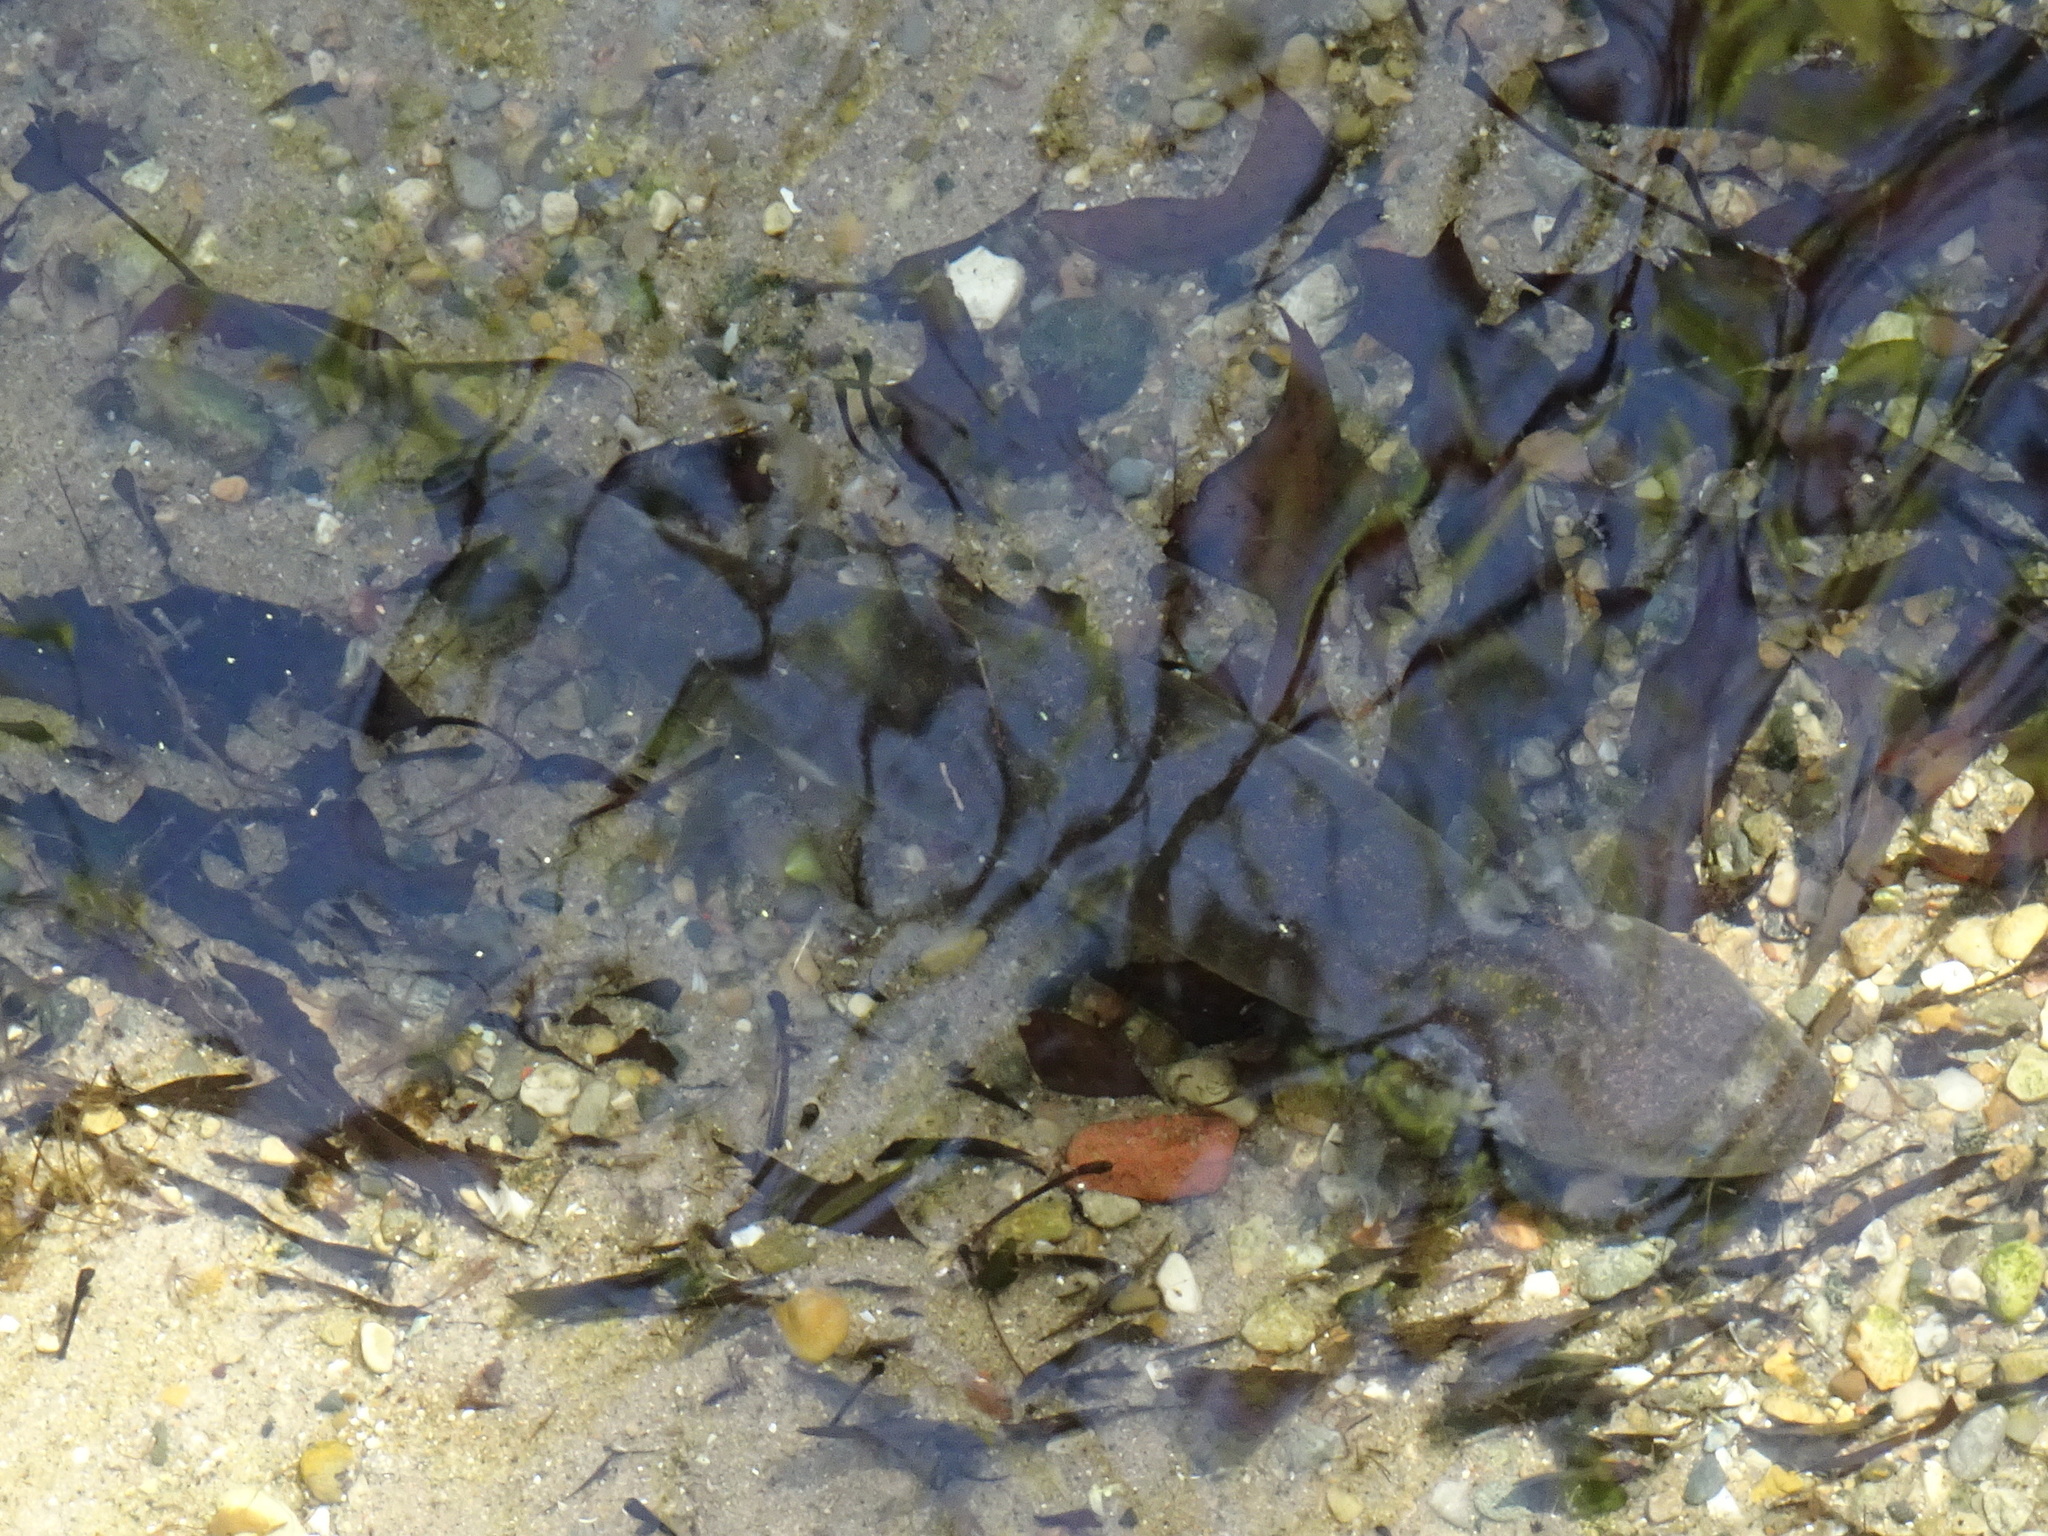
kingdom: Animalia
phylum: Chordata
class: Amphibia
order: Caudata
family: Proteidae
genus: Necturus
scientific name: Necturus maculosus
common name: Mudpuppy
